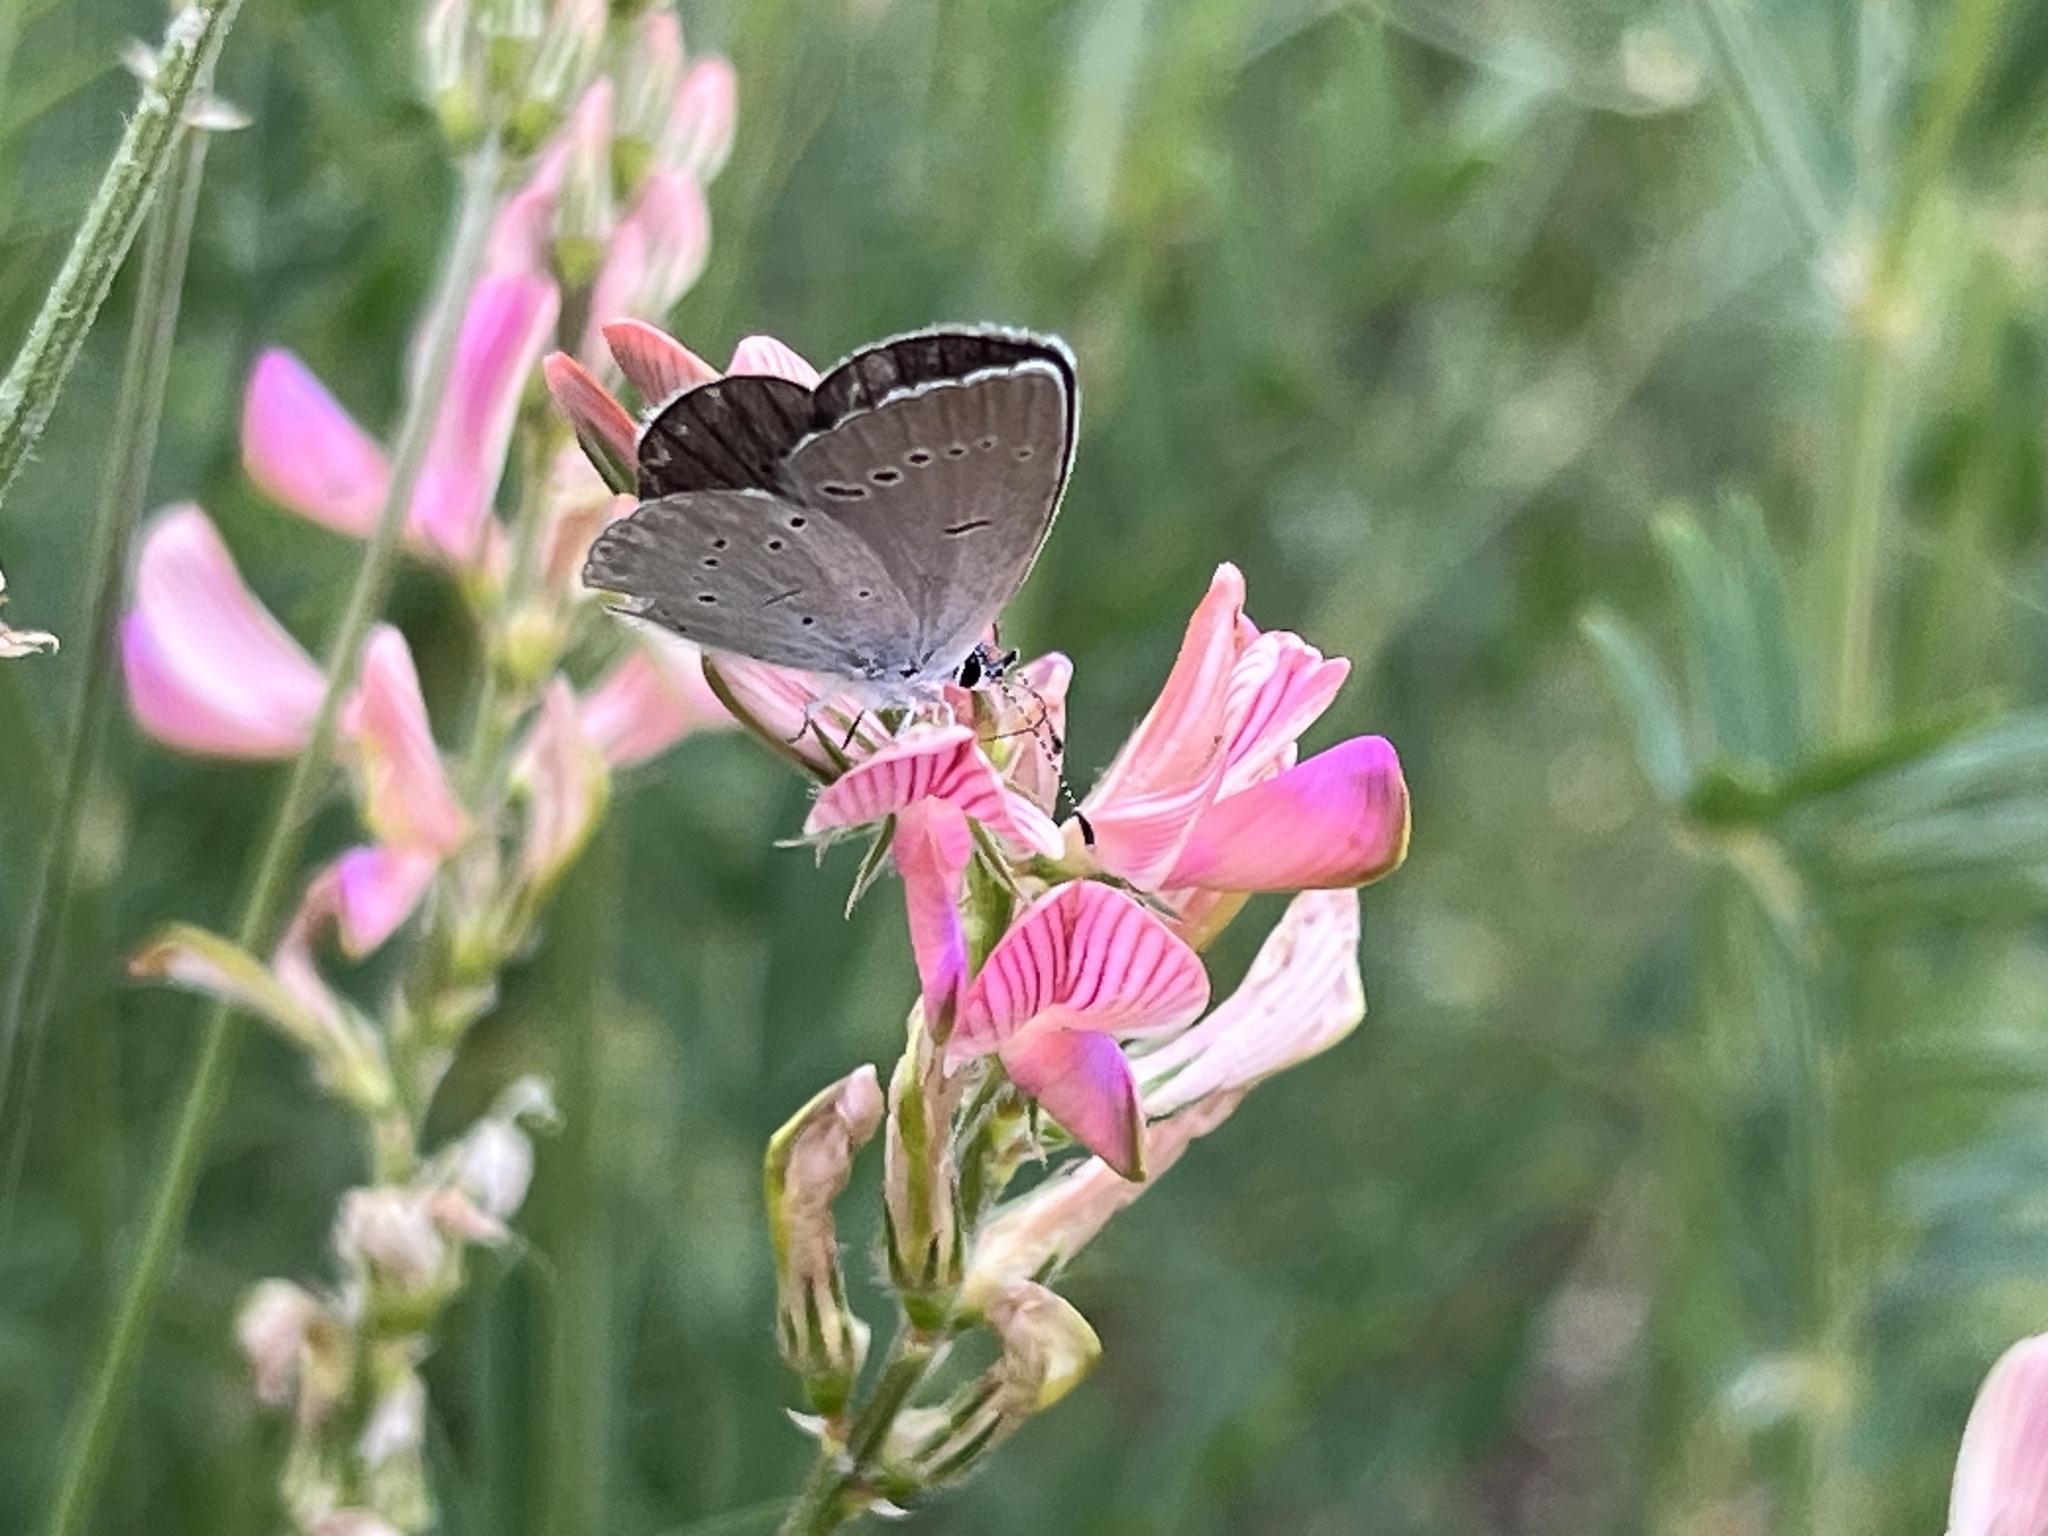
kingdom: Animalia
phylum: Arthropoda
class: Insecta
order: Lepidoptera
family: Lycaenidae
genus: Cupido
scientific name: Cupido minimus
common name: Small blue
